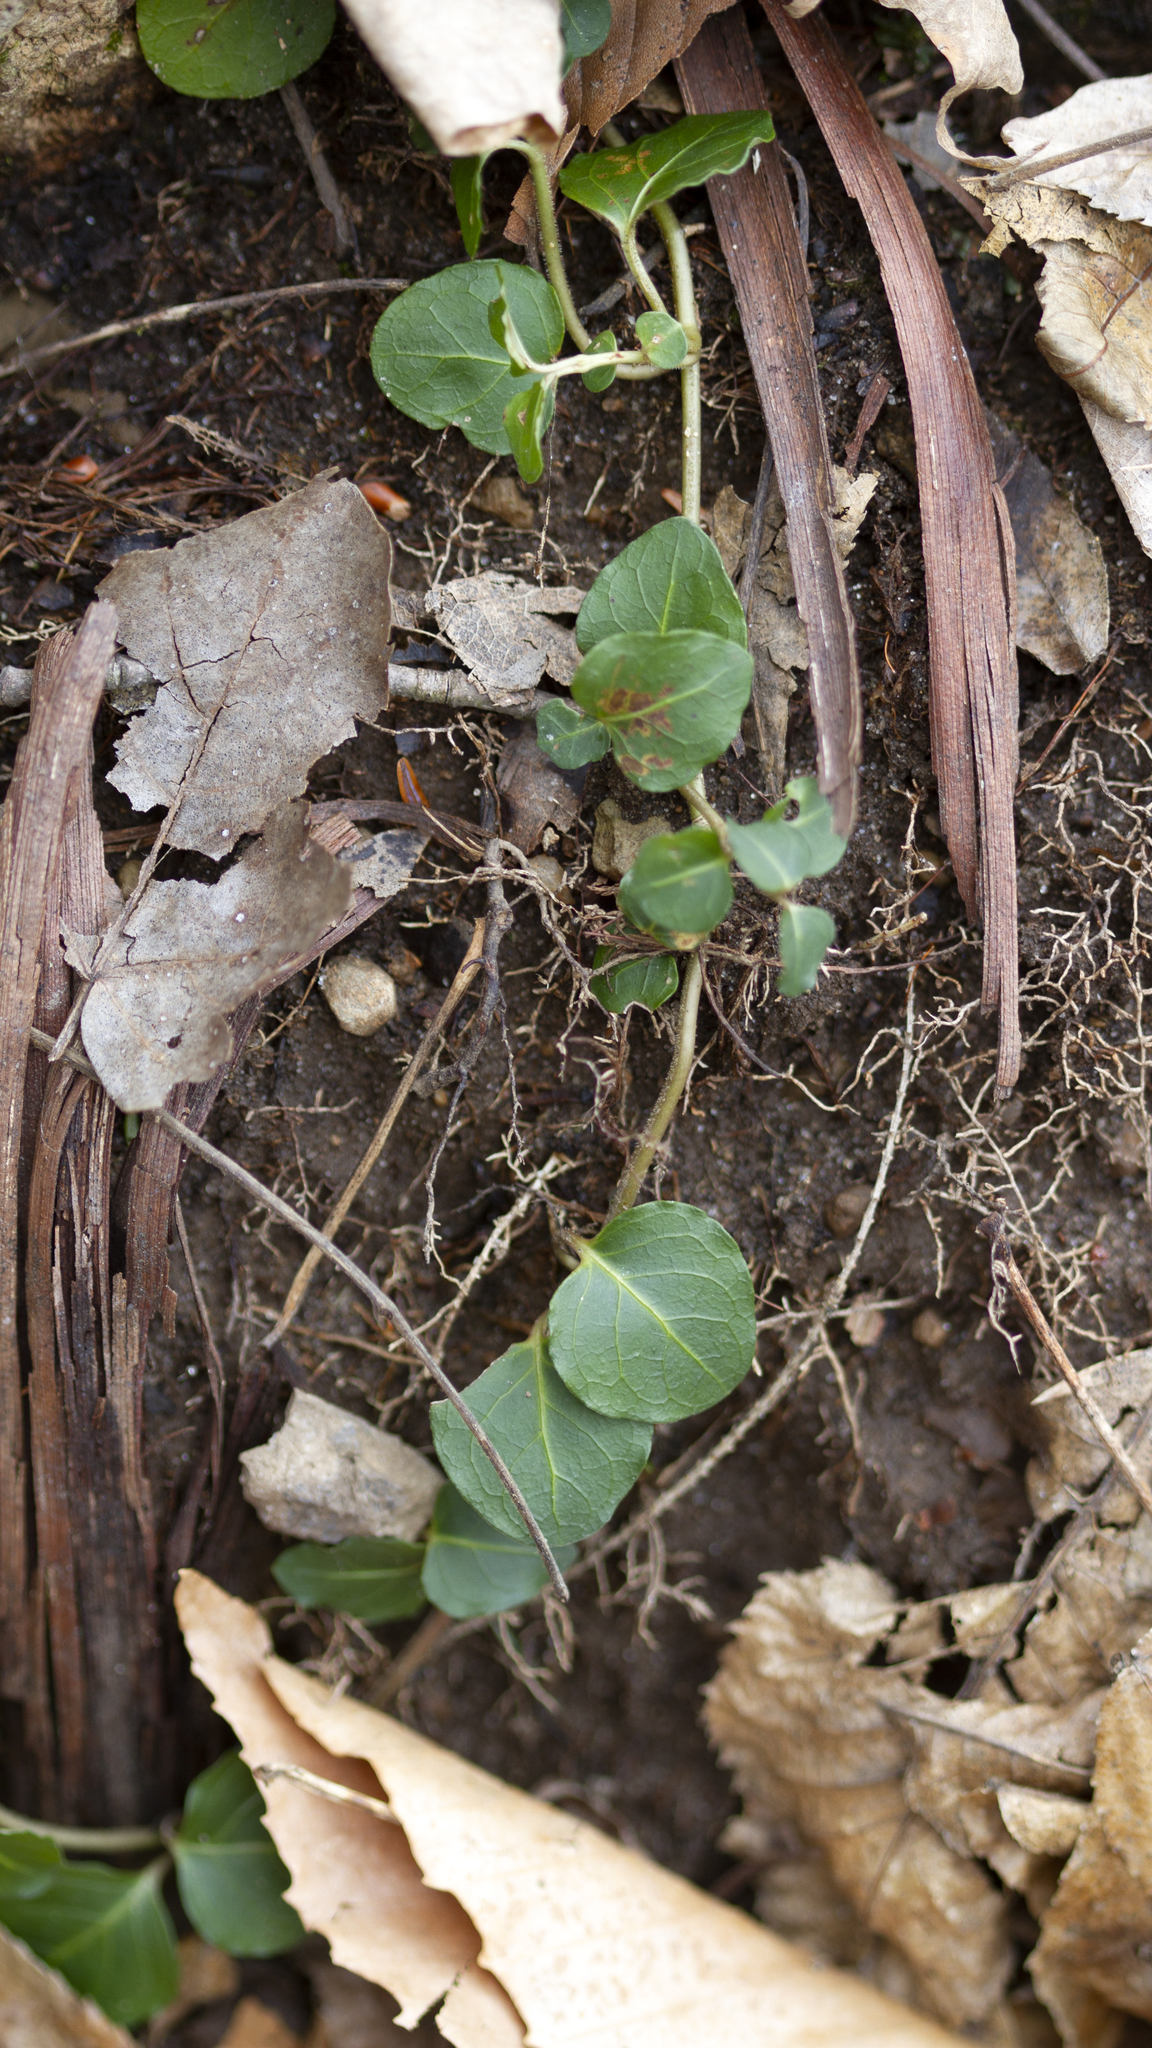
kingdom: Plantae
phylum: Tracheophyta
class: Magnoliopsida
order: Gentianales
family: Rubiaceae
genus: Mitchella
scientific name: Mitchella repens
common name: Partridge-berry
